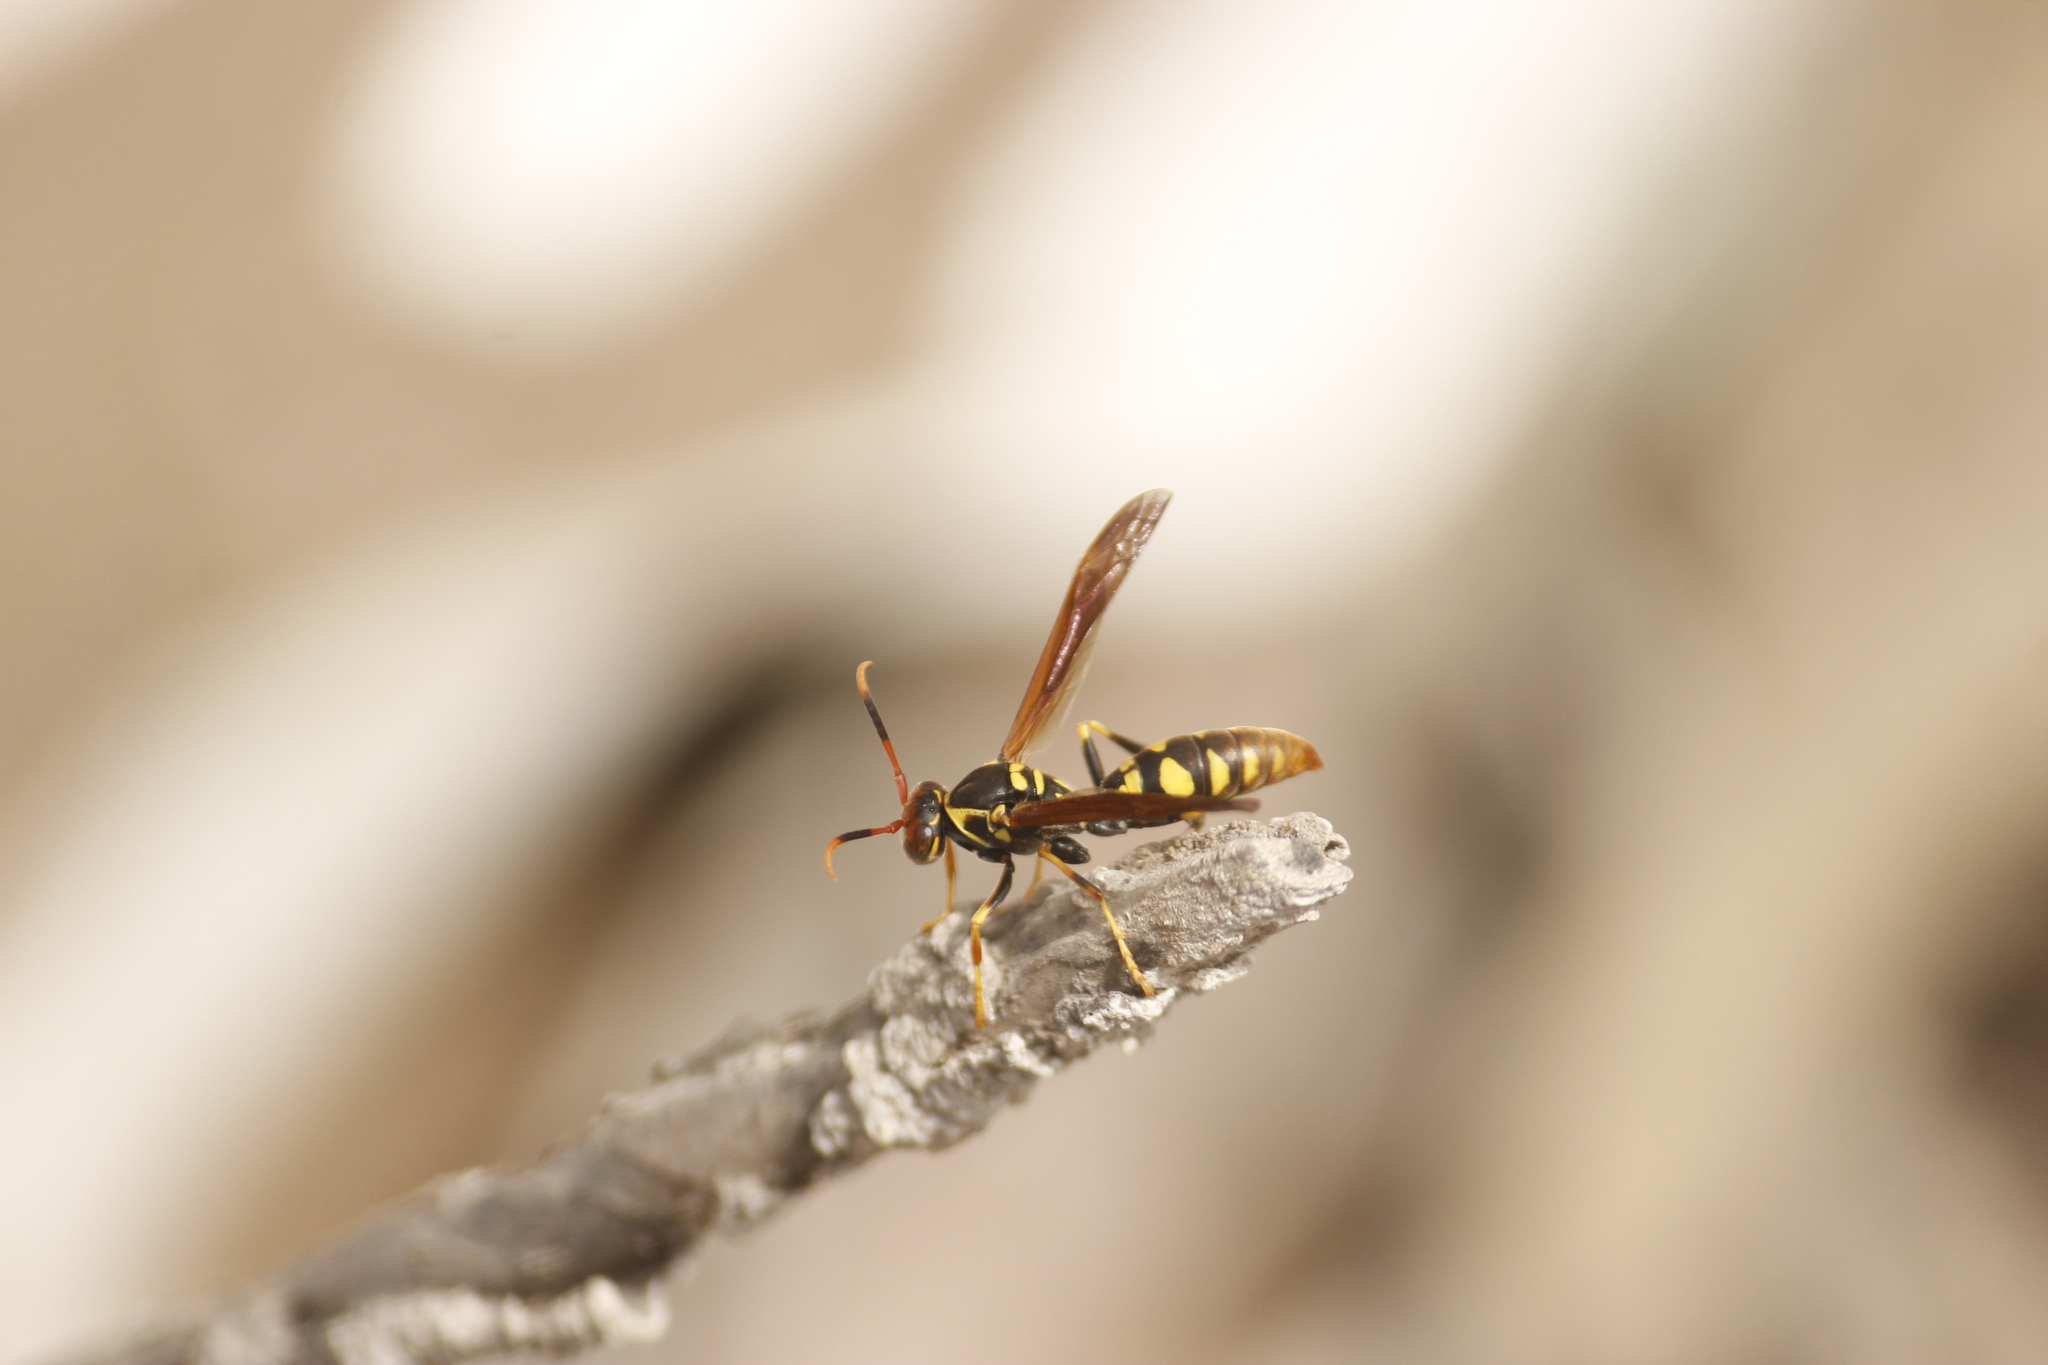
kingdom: Animalia
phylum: Arthropoda
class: Insecta
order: Hymenoptera
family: Eumenidae
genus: Polistes
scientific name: Polistes weyrauchorum
